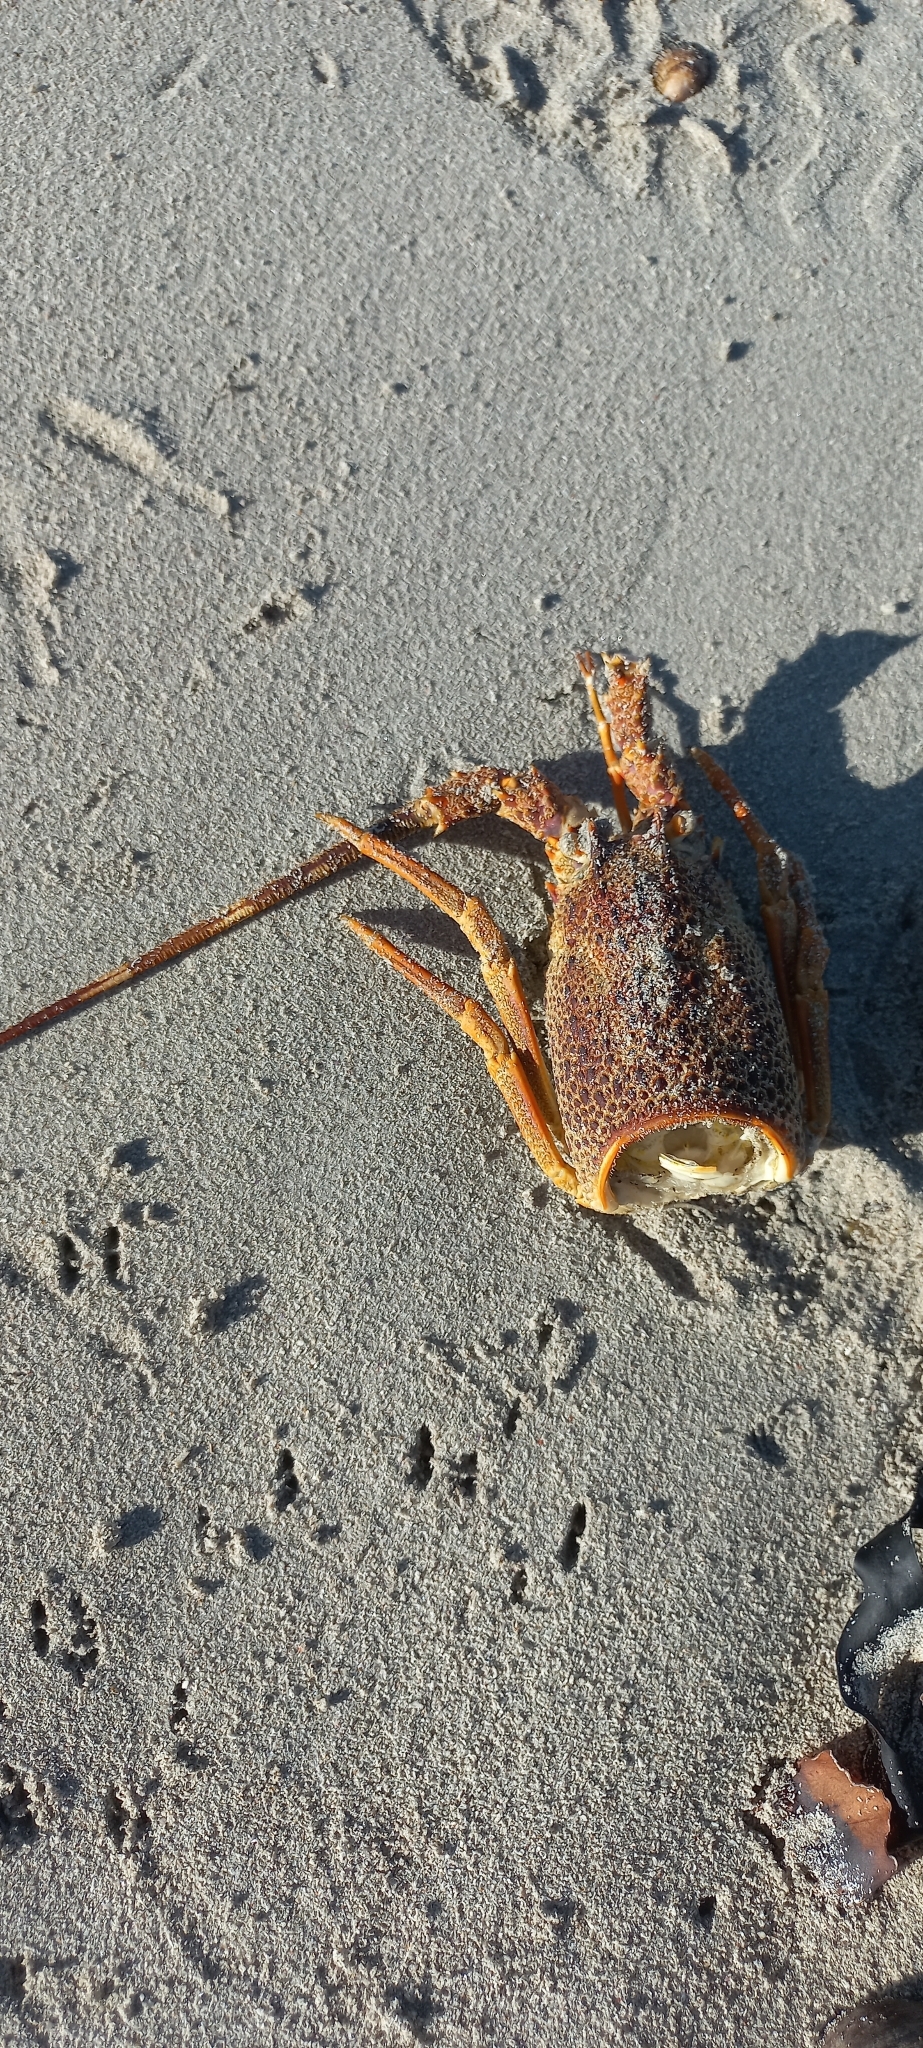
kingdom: Animalia
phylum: Arthropoda
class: Malacostraca
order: Decapoda
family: Palinuridae
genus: Jasus
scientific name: Jasus lalandii
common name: Cape rock lobster
